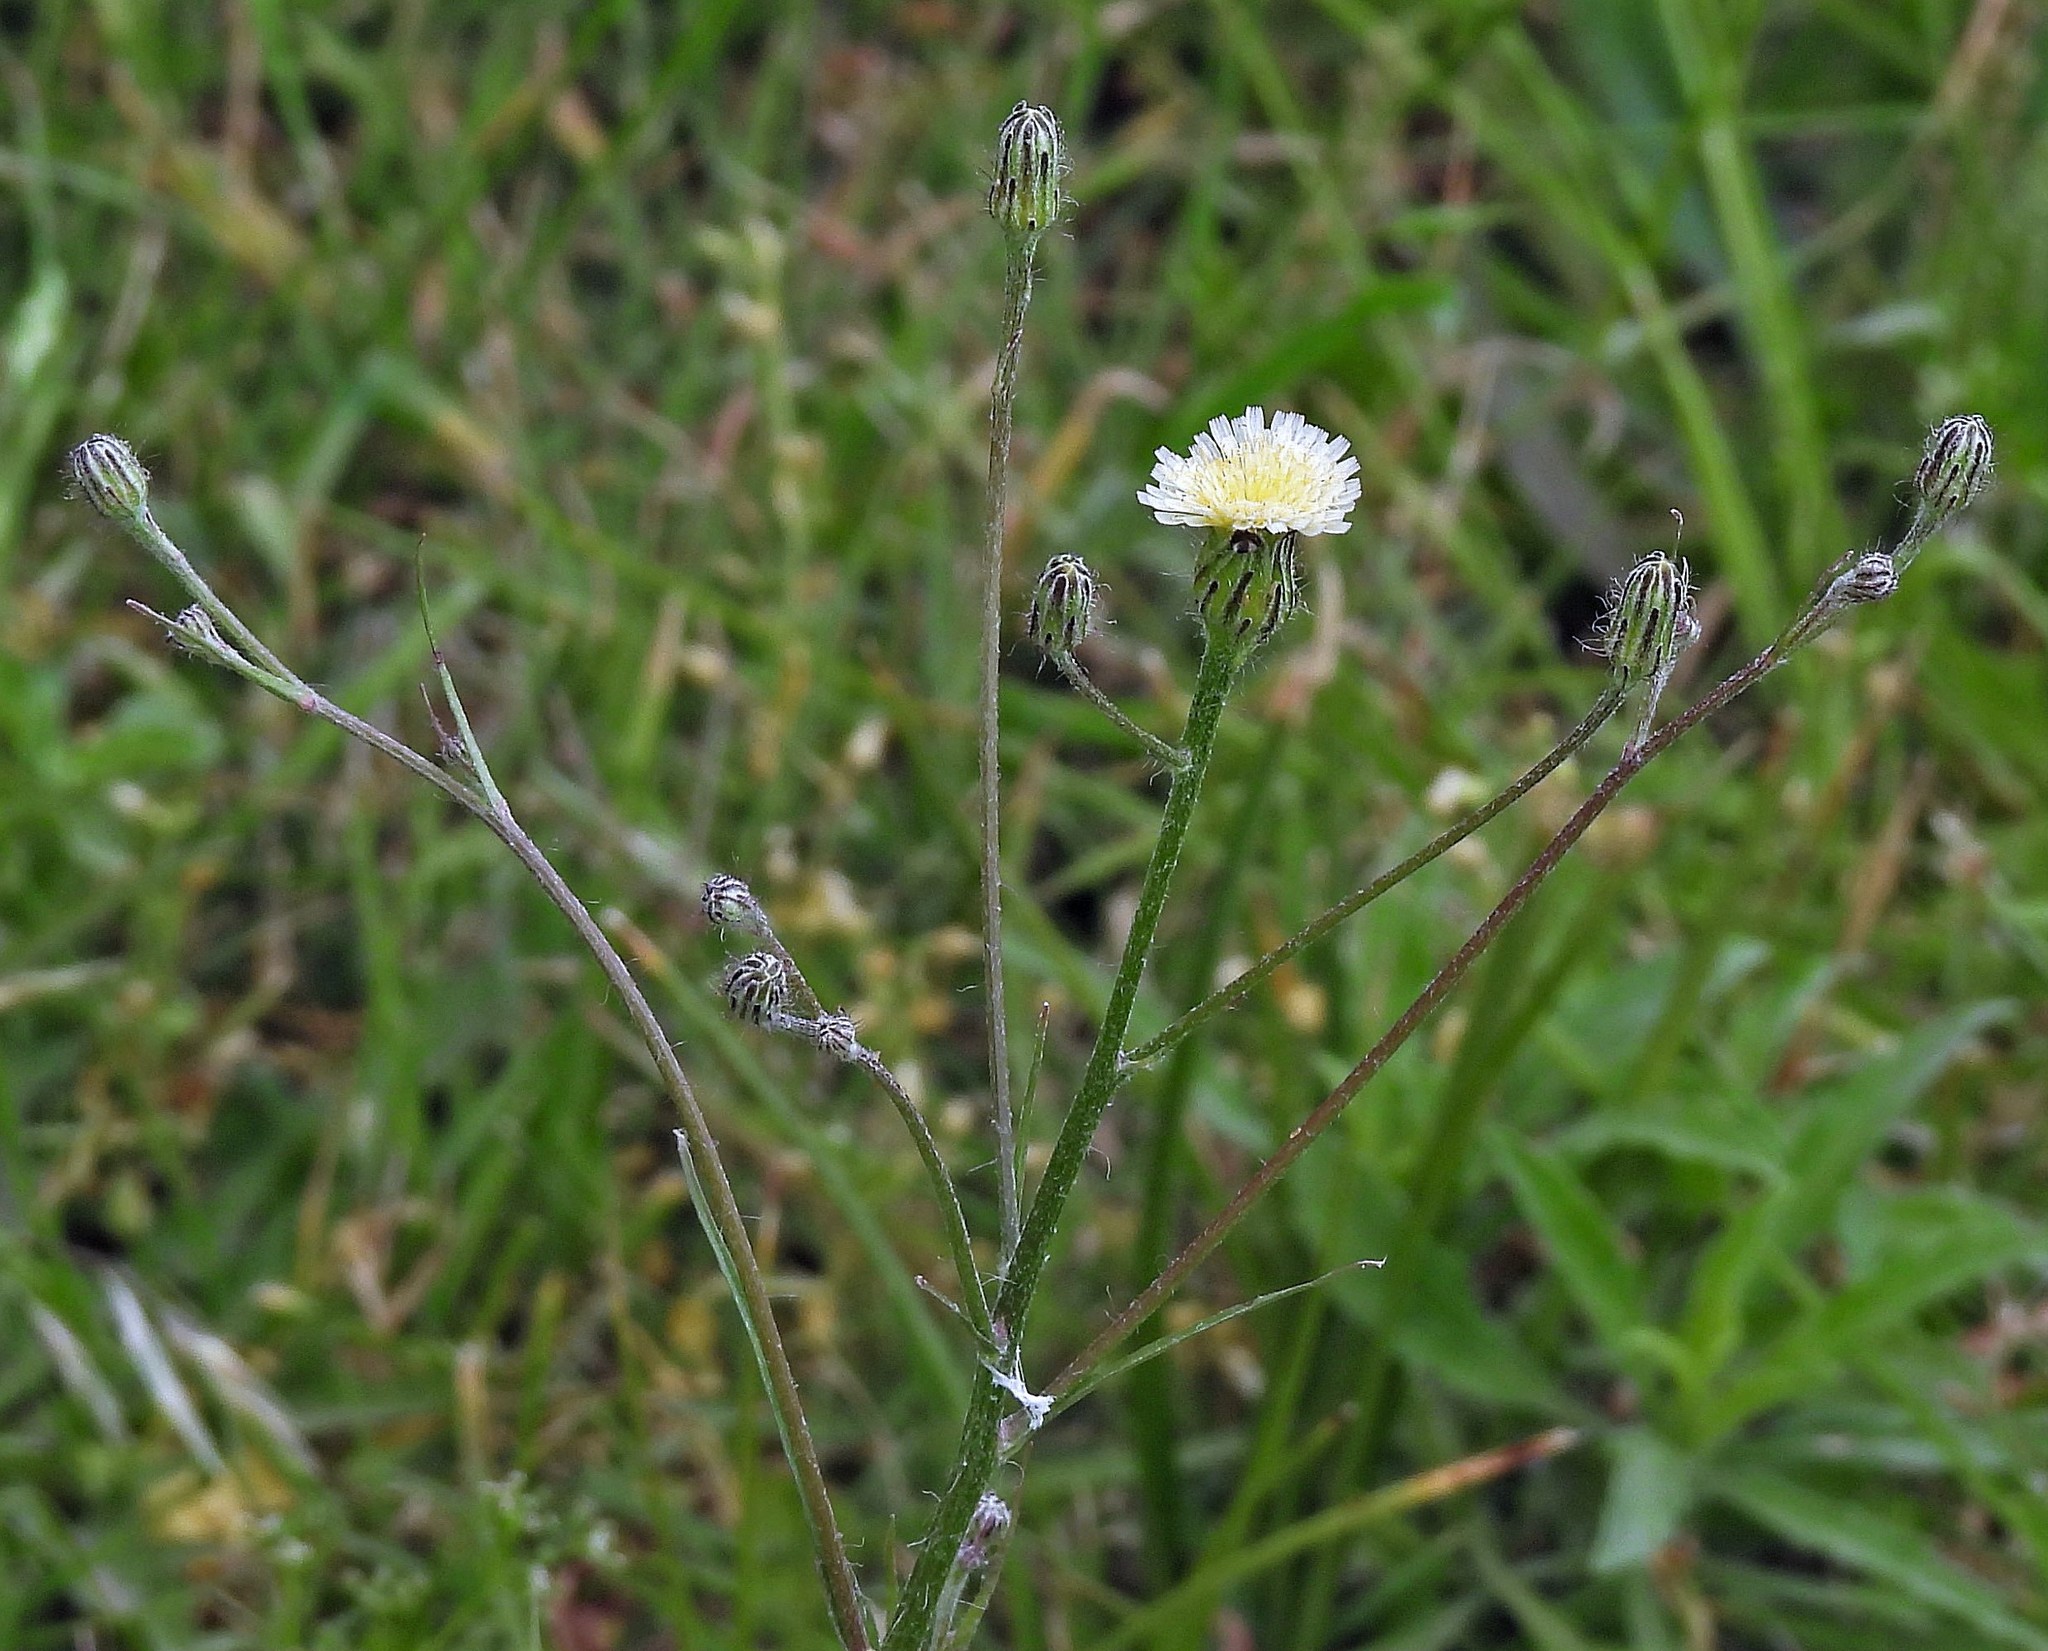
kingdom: Plantae
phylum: Tracheophyta
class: Magnoliopsida
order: Asterales
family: Asteraceae
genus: Hypochaeris
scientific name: Hypochaeris albiflora
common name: White flatweed
